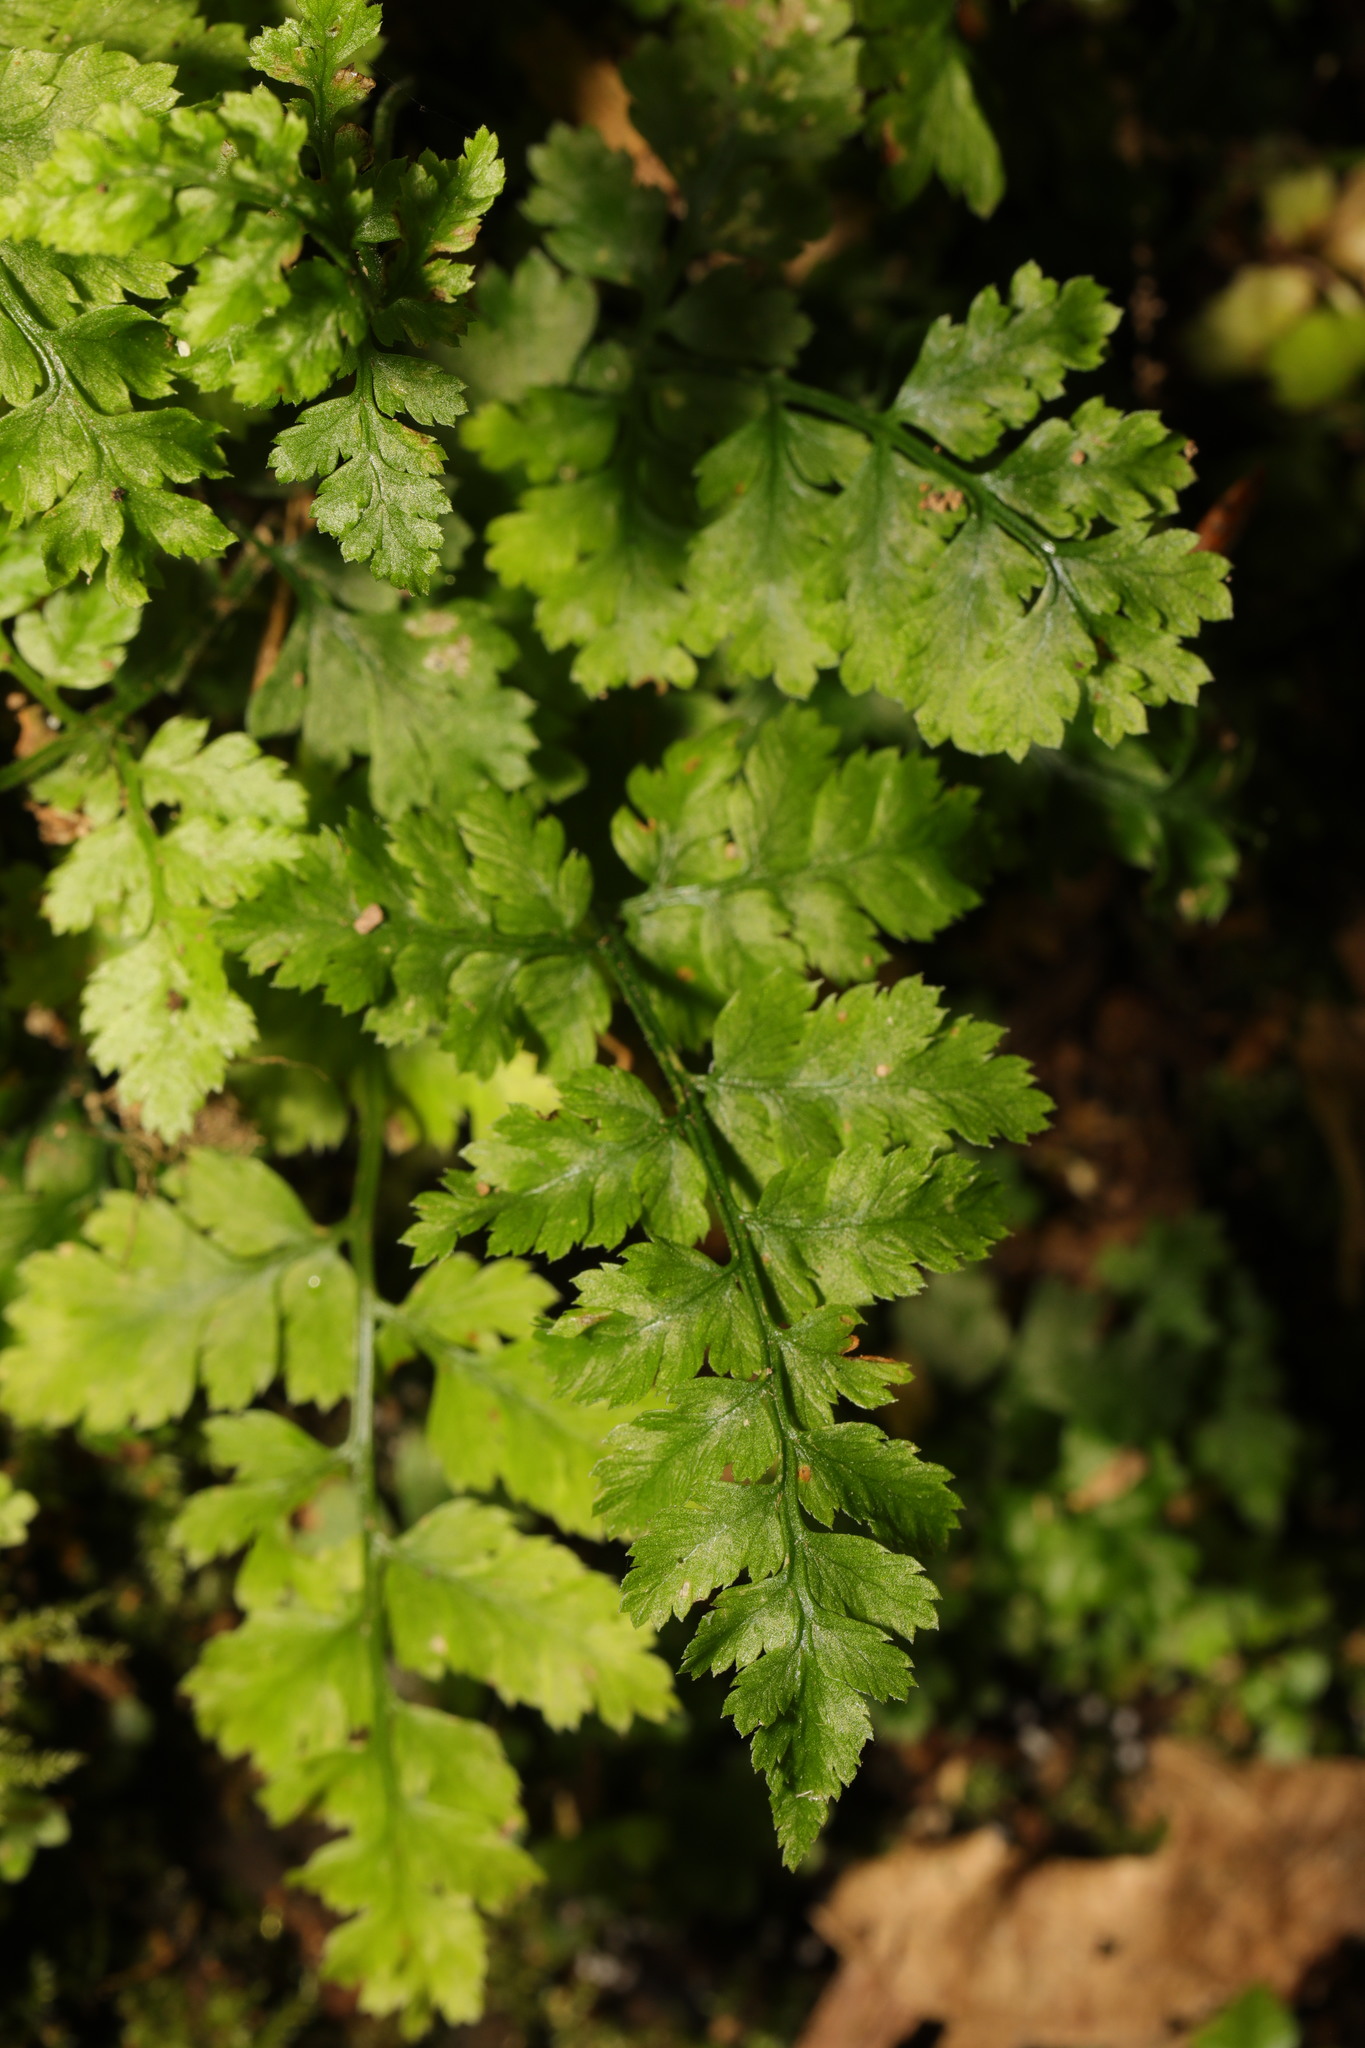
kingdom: Plantae
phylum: Tracheophyta
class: Polypodiopsida
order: Polypodiales
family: Dryopteridaceae
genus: Dryopteris
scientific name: Dryopteris dilatata
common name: Broad buckler-fern
